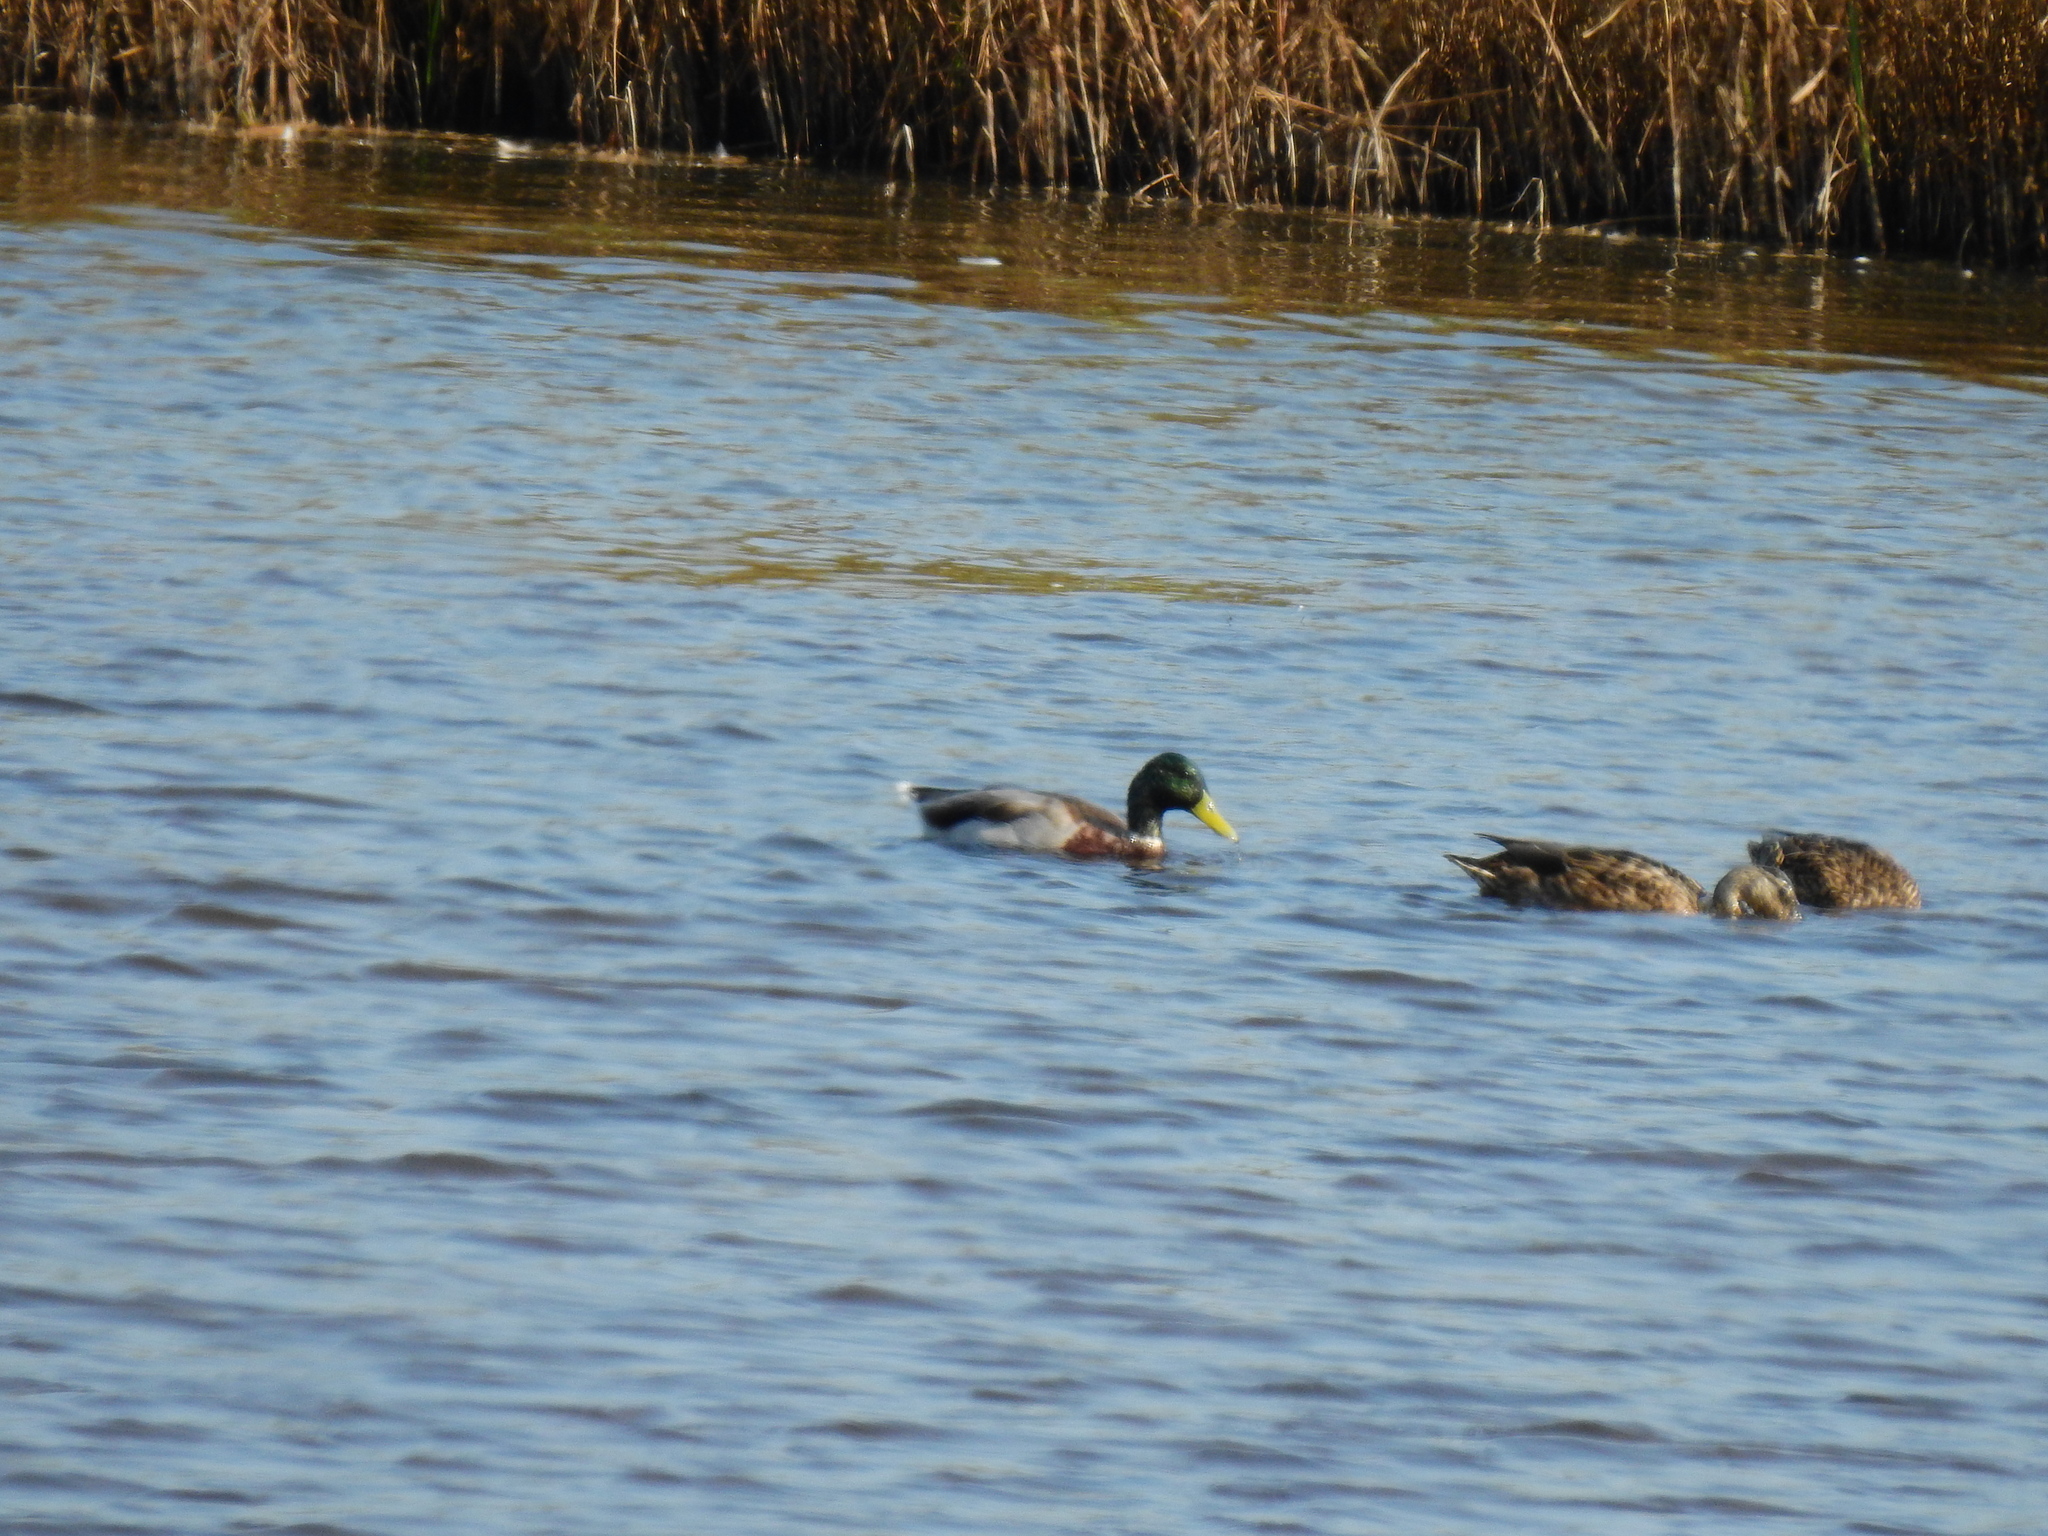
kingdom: Animalia
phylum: Chordata
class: Aves
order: Anseriformes
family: Anatidae
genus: Anas
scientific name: Anas platyrhynchos
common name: Mallard
